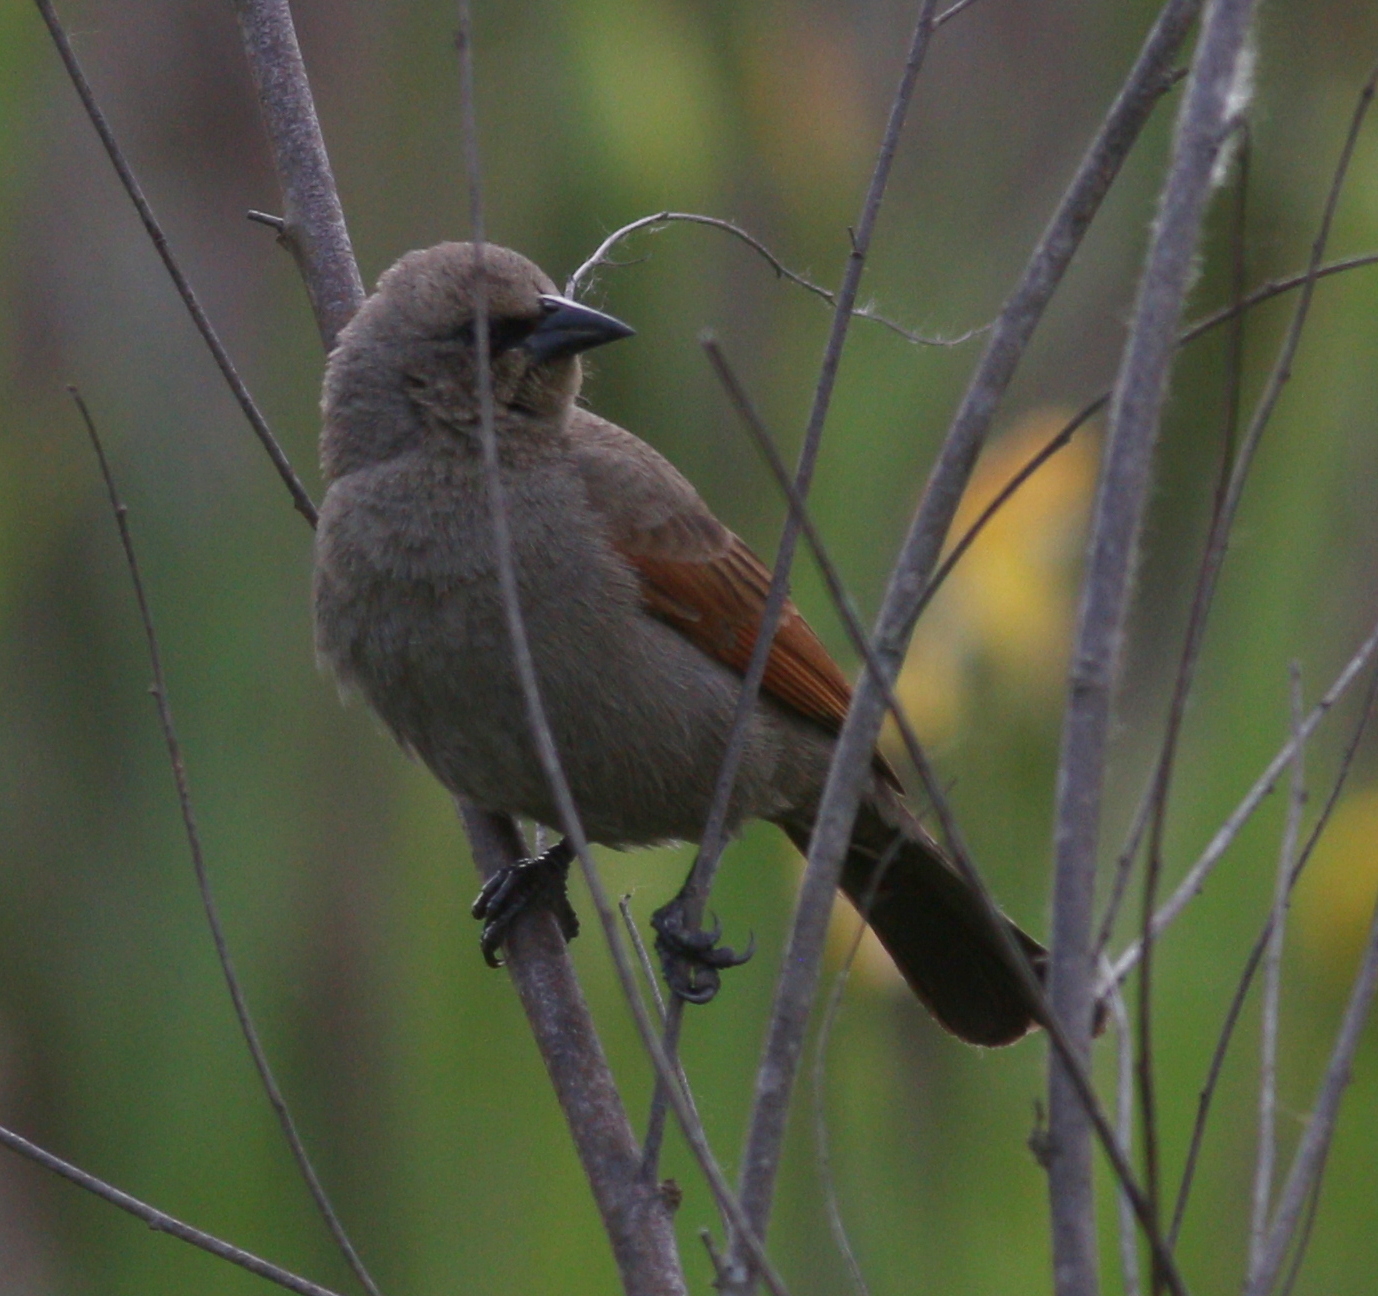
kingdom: Animalia
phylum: Chordata
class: Aves
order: Passeriformes
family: Icteridae
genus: Agelaioides
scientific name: Agelaioides badius
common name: Baywing
